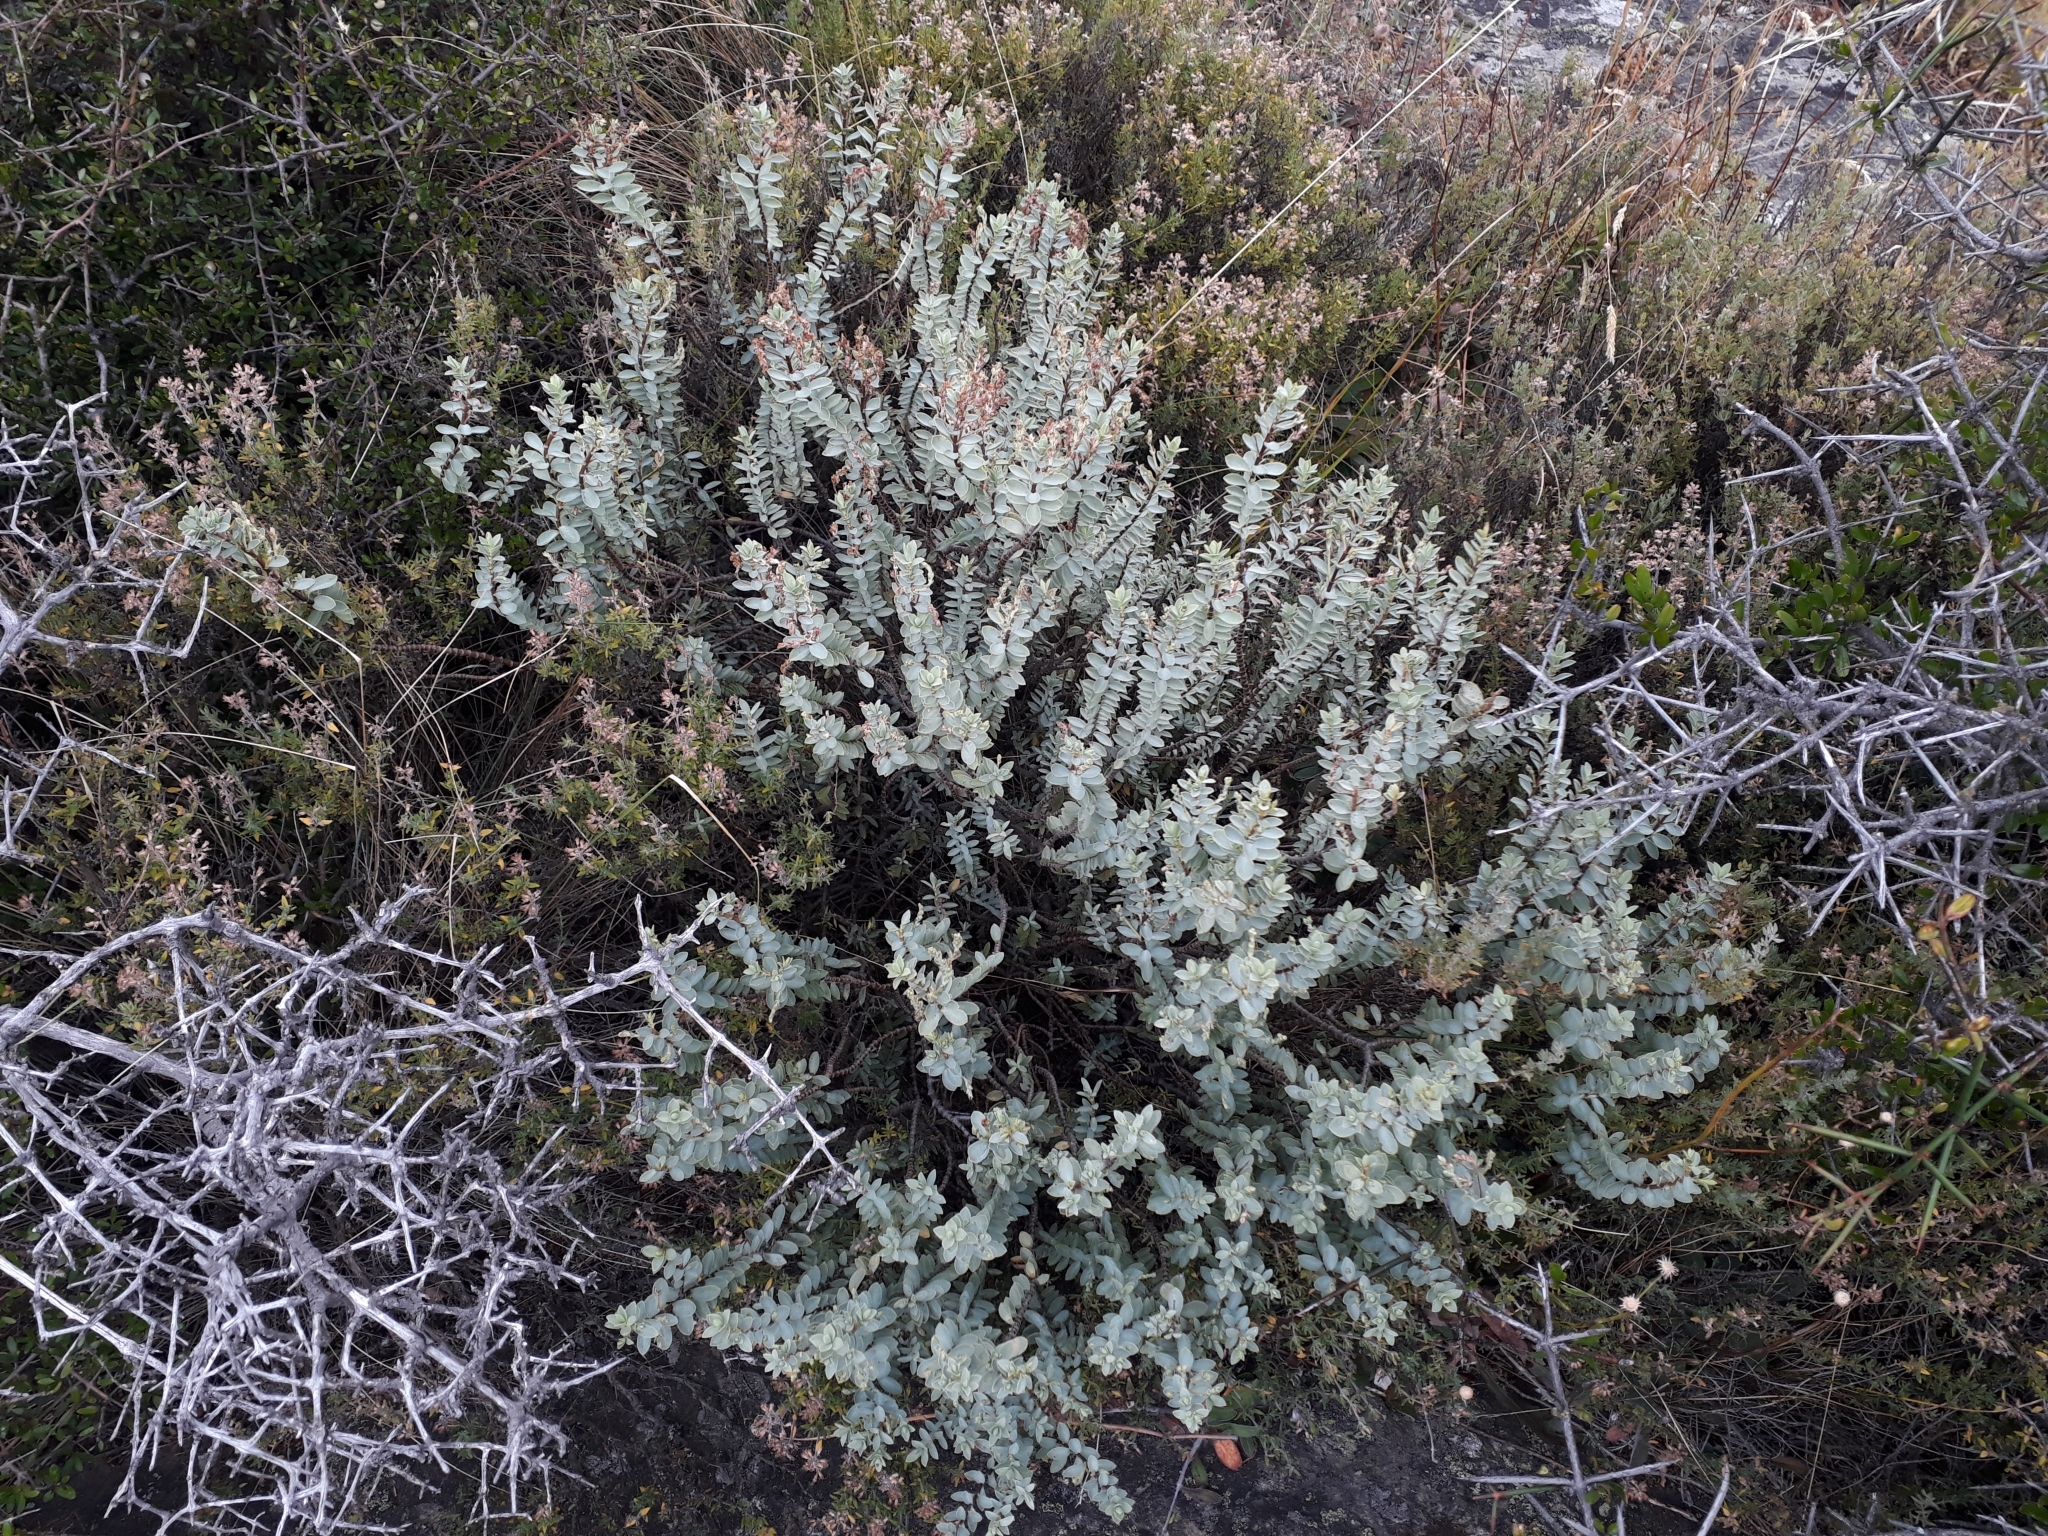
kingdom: Plantae
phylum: Tracheophyta
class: Magnoliopsida
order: Lamiales
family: Plantaginaceae
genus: Veronica
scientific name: Veronica pimeleoides
